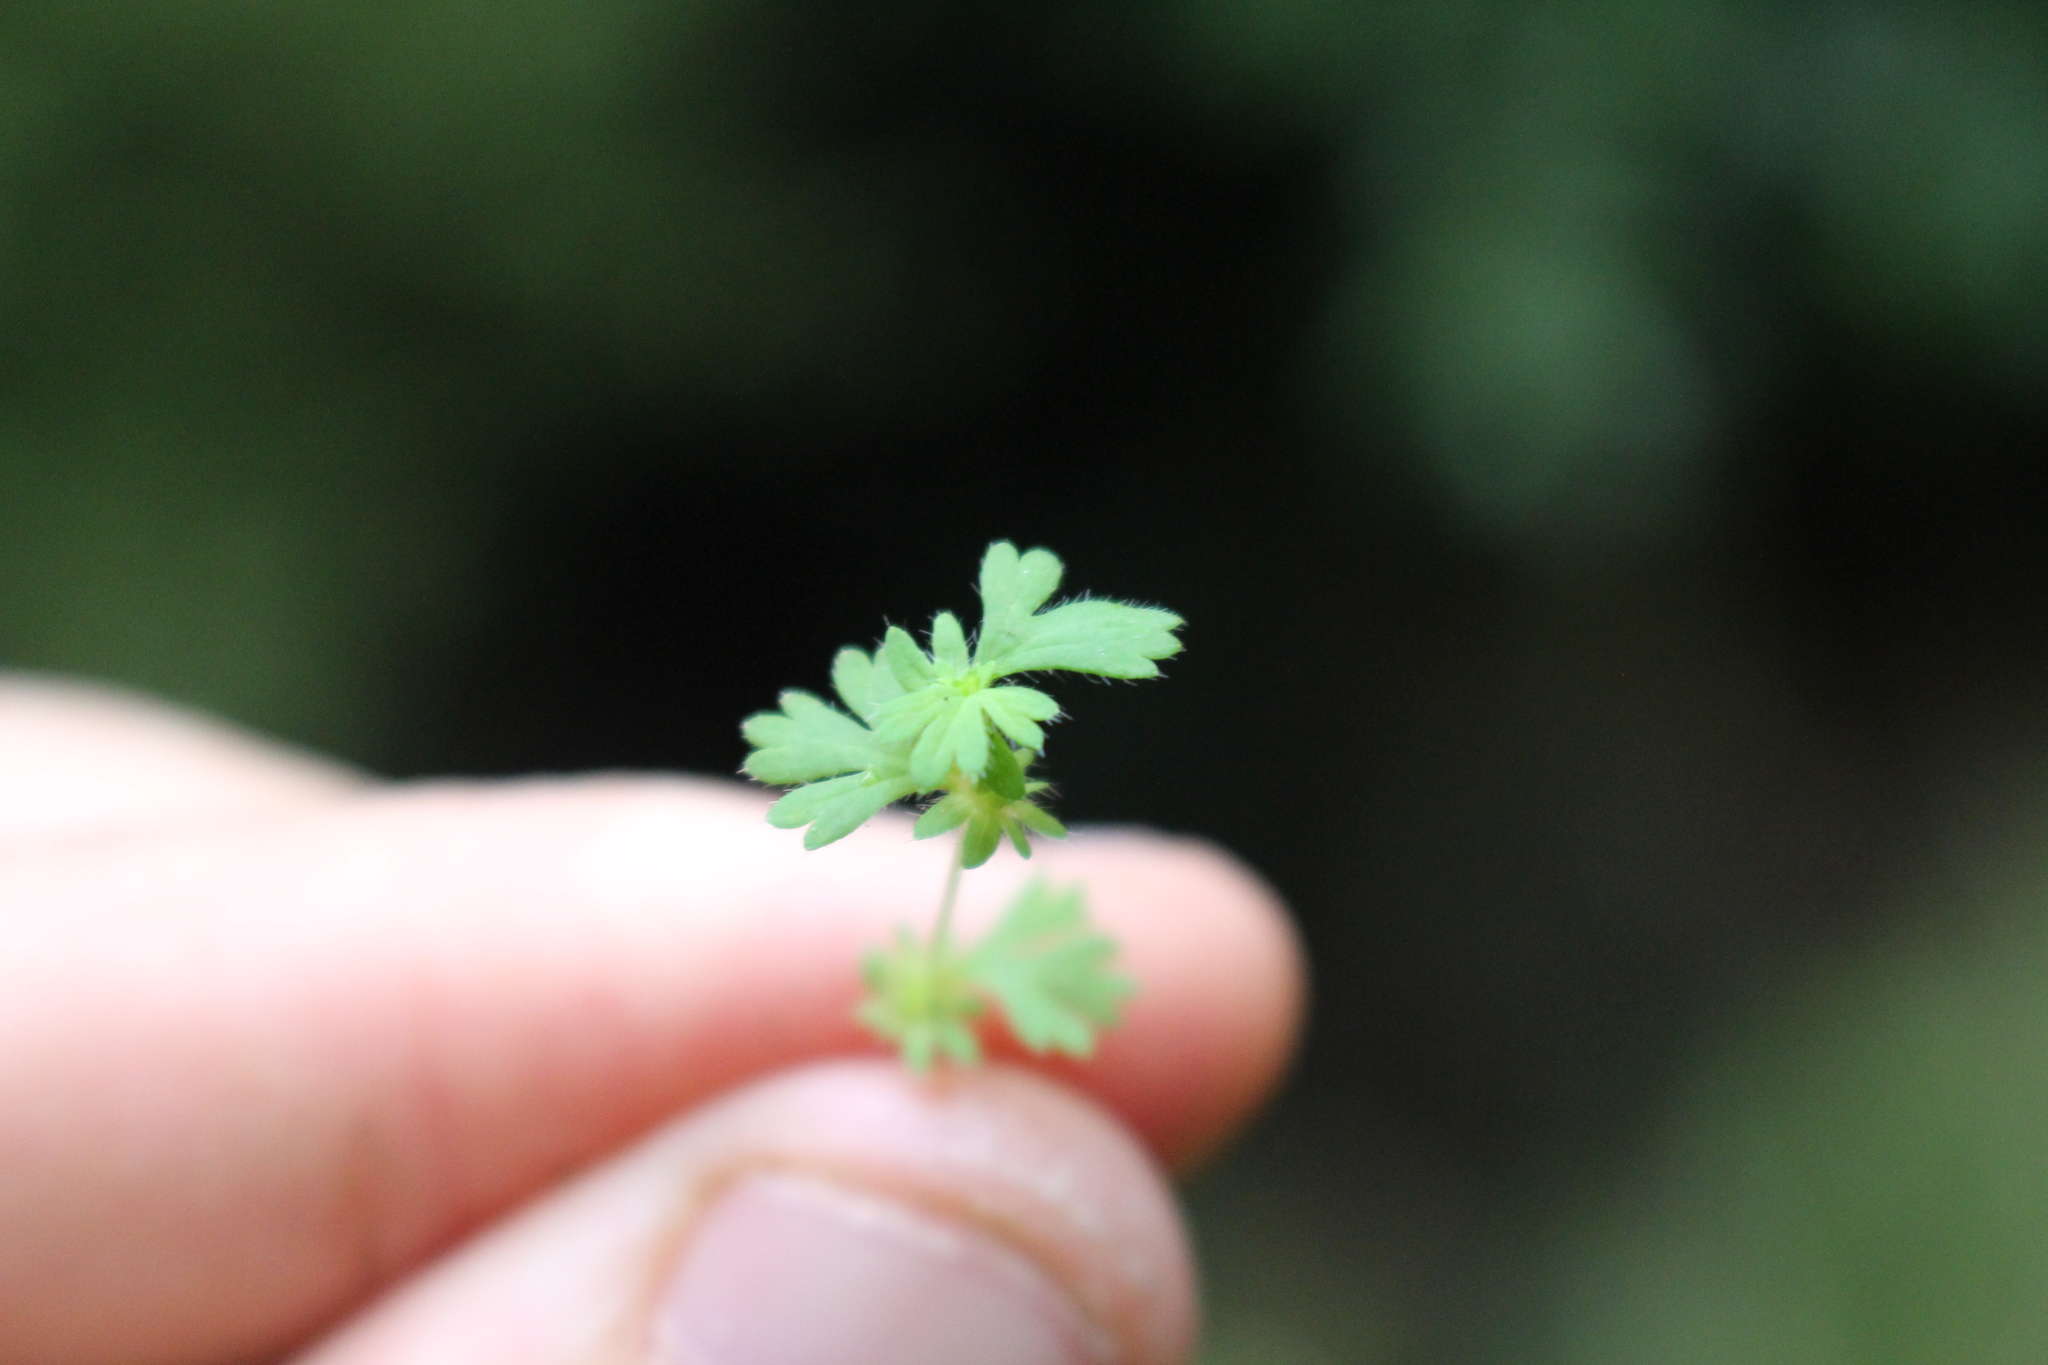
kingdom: Plantae
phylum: Tracheophyta
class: Magnoliopsida
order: Rosales
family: Rosaceae
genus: Aphanes
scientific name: Aphanes australis
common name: Slender parsley-piert
